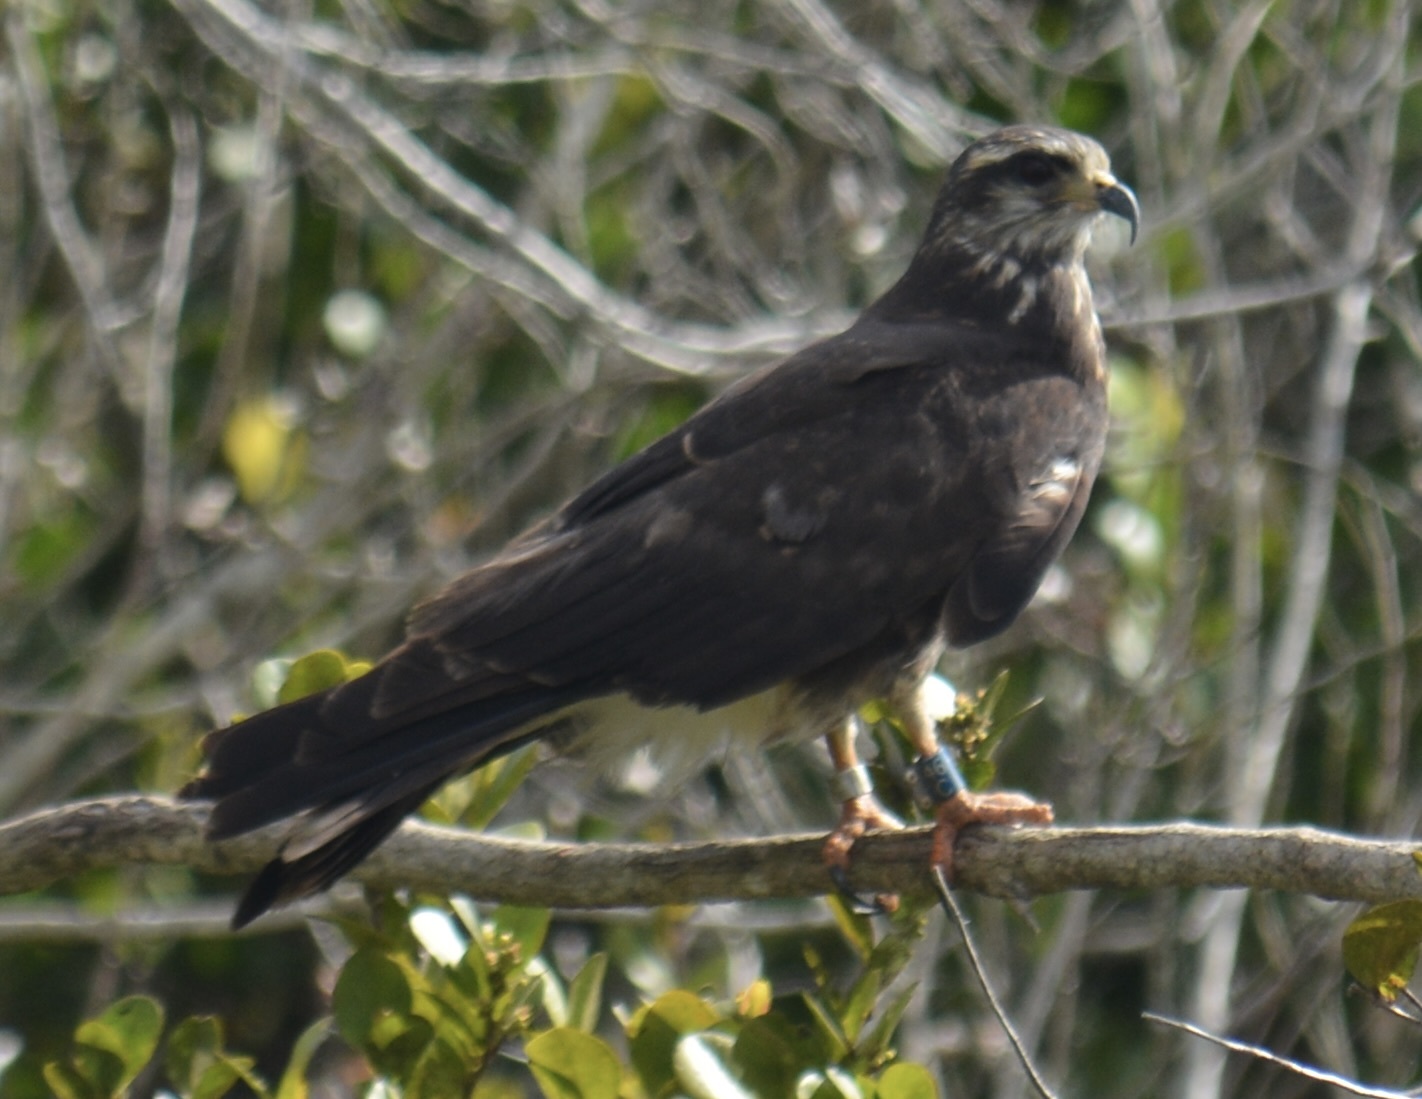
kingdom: Animalia
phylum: Chordata
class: Aves
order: Accipitriformes
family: Accipitridae
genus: Rostrhamus
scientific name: Rostrhamus sociabilis
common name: Snail kite
